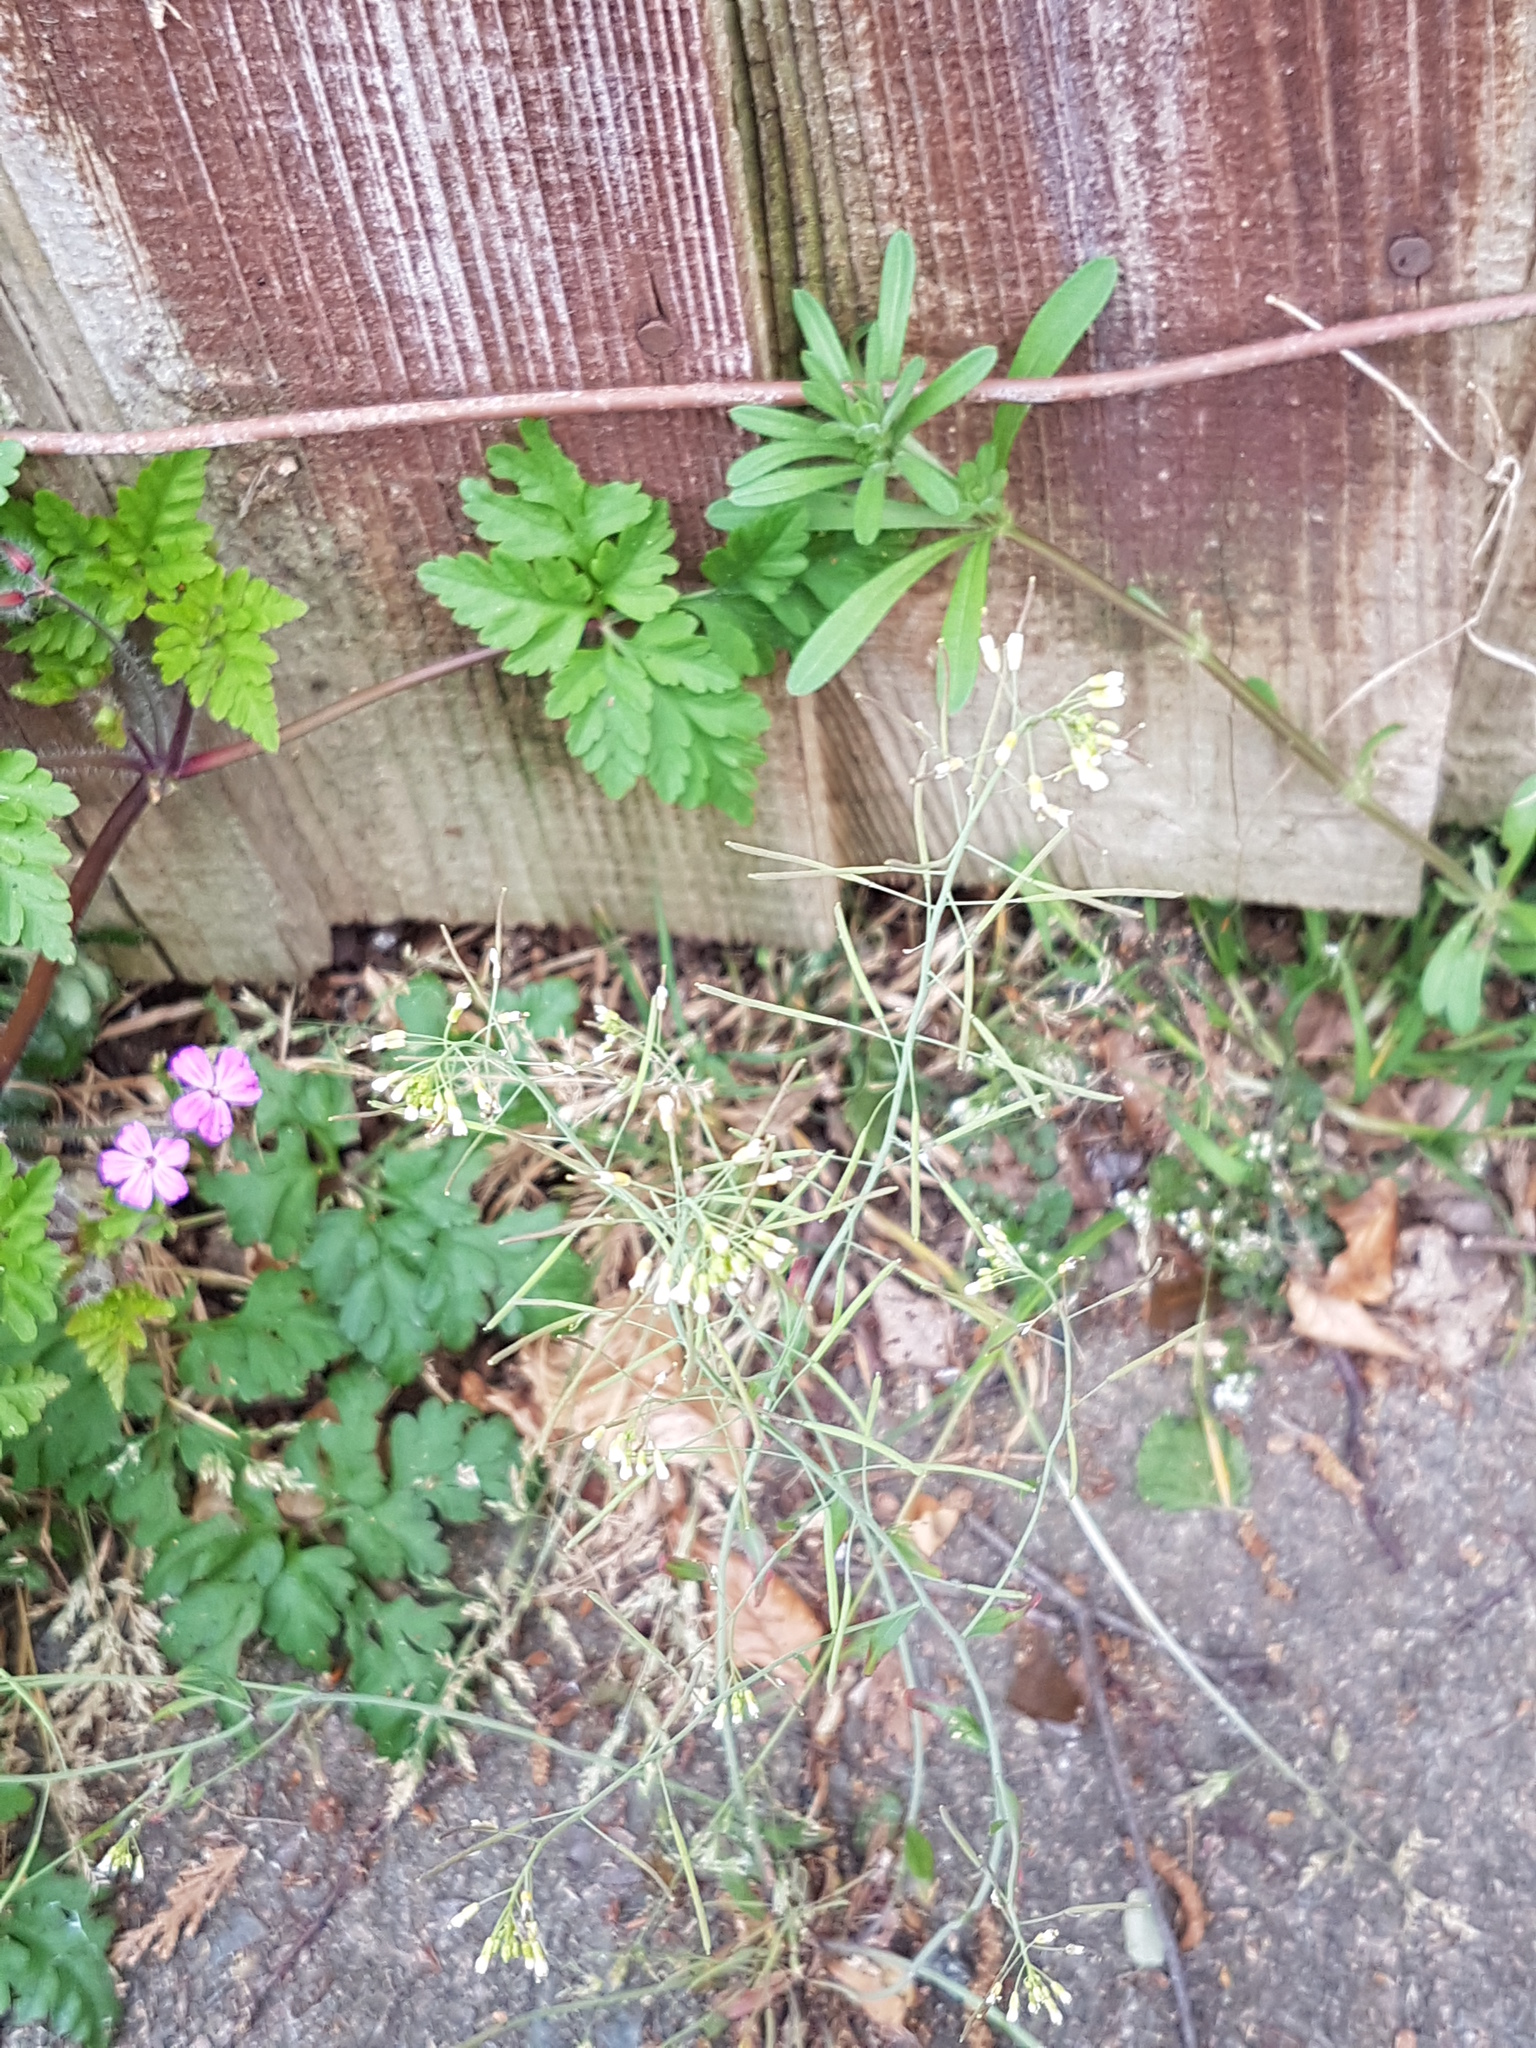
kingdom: Plantae
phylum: Tracheophyta
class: Magnoliopsida
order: Brassicales
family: Brassicaceae
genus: Arabidopsis
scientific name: Arabidopsis thaliana
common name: Thale cress
